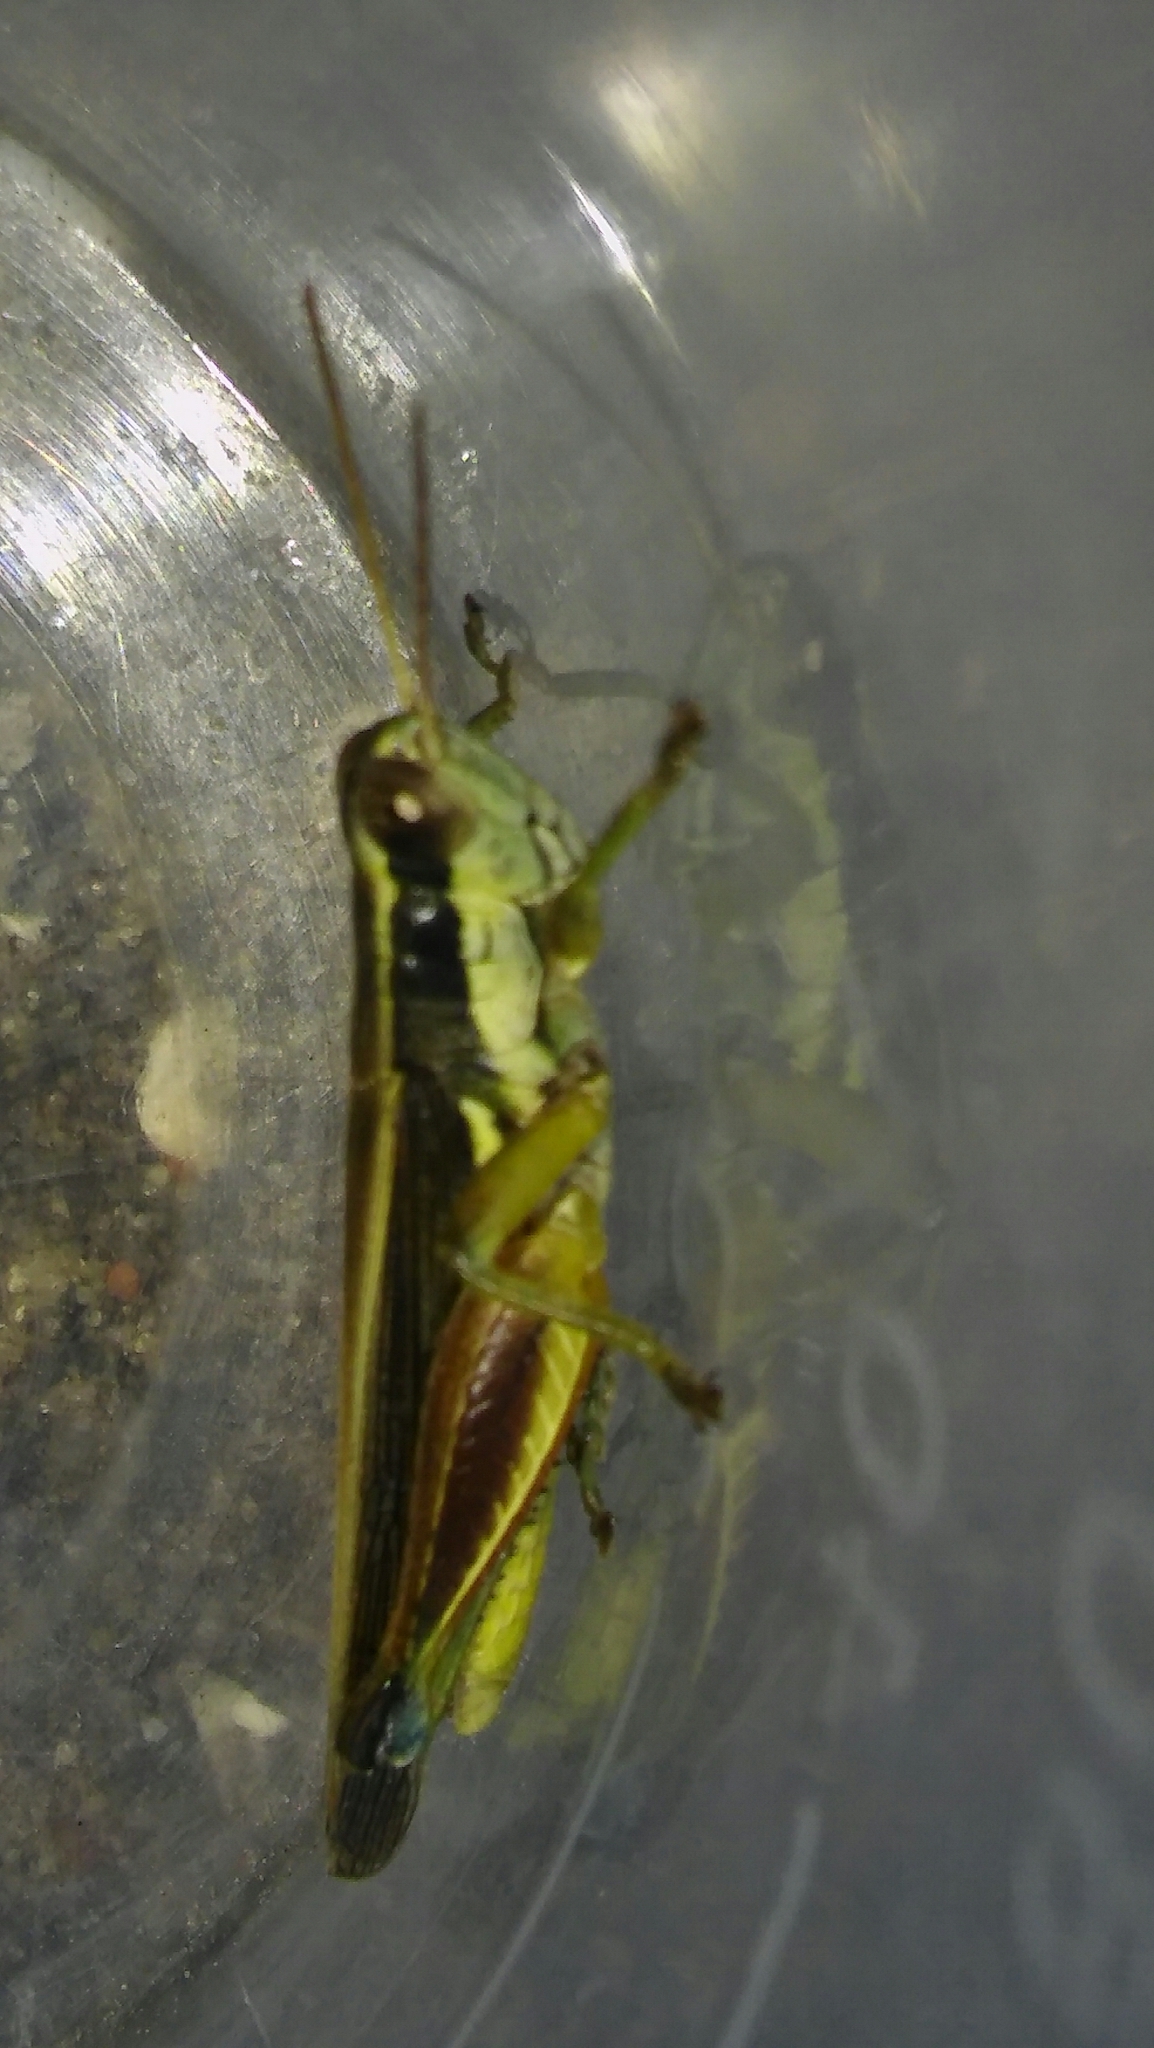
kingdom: Animalia
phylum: Arthropoda
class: Insecta
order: Orthoptera
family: Acrididae
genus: Dichroplus
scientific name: Dichroplus elongatus
